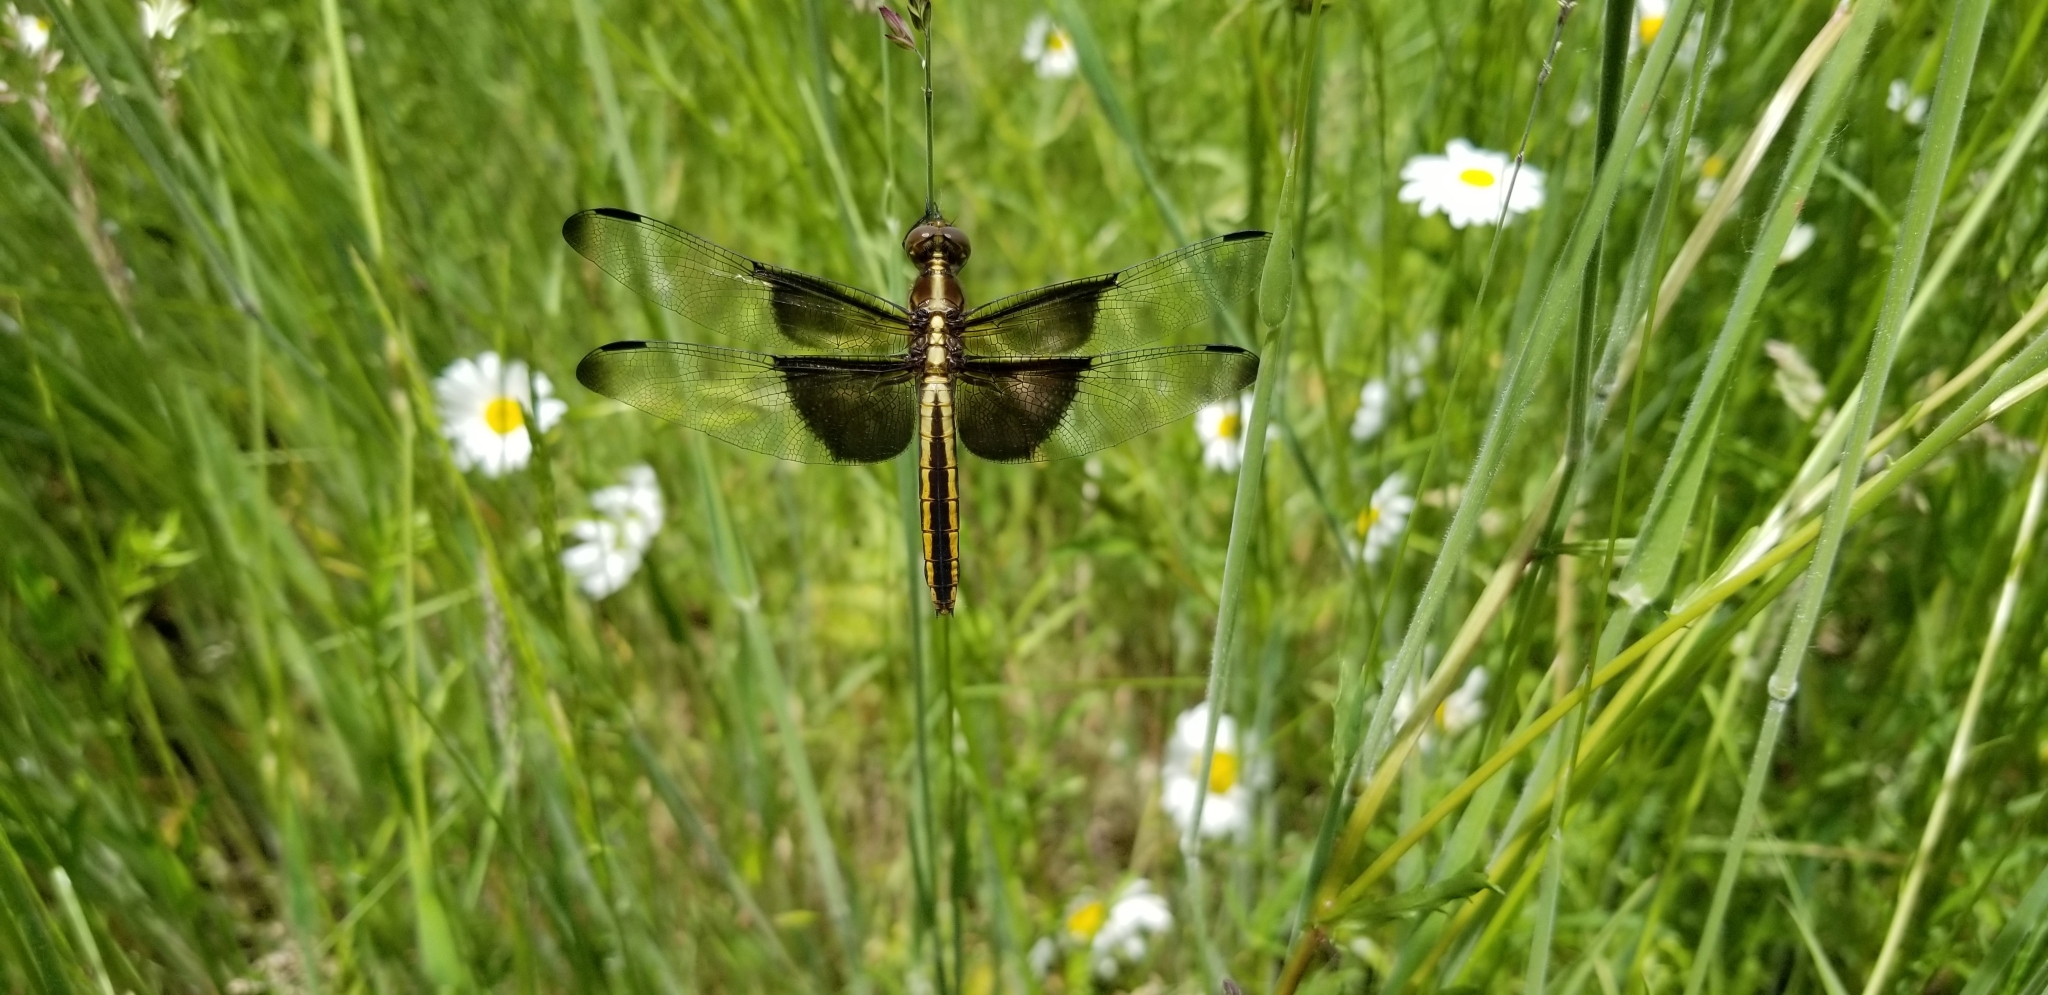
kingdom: Animalia
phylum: Arthropoda
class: Insecta
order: Odonata
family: Libellulidae
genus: Libellula
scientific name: Libellula luctuosa
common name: Widow skimmer
